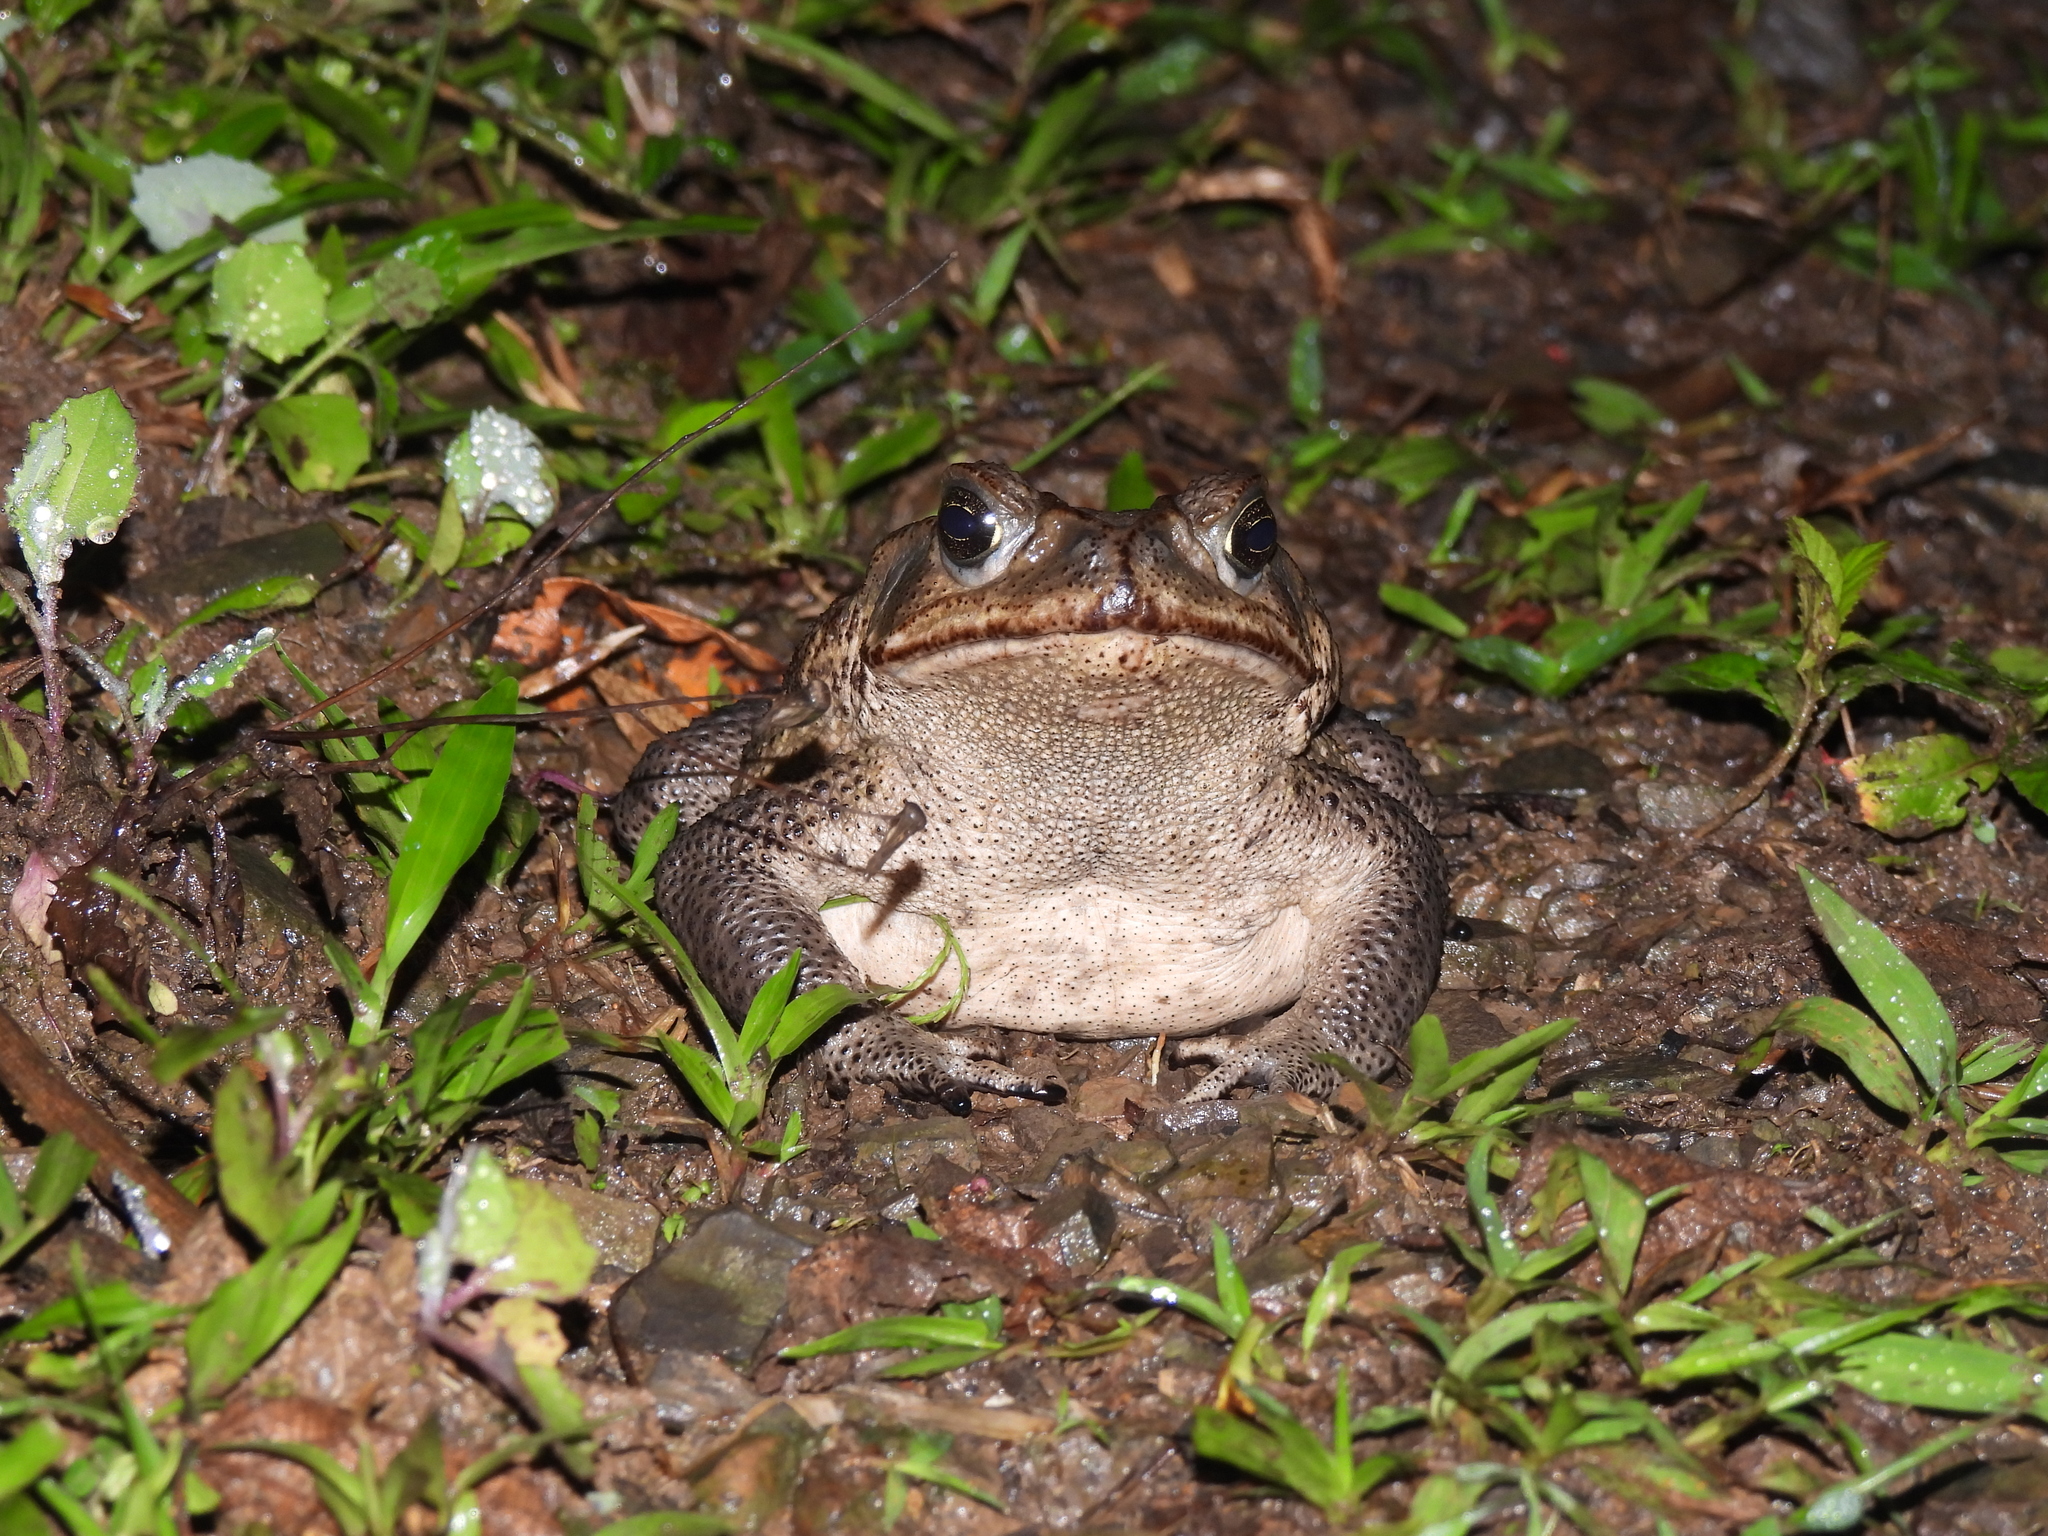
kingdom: Animalia
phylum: Chordata
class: Amphibia
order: Anura
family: Bufonidae
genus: Rhinella
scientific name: Rhinella horribilis
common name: Mesoamerican cane toad
